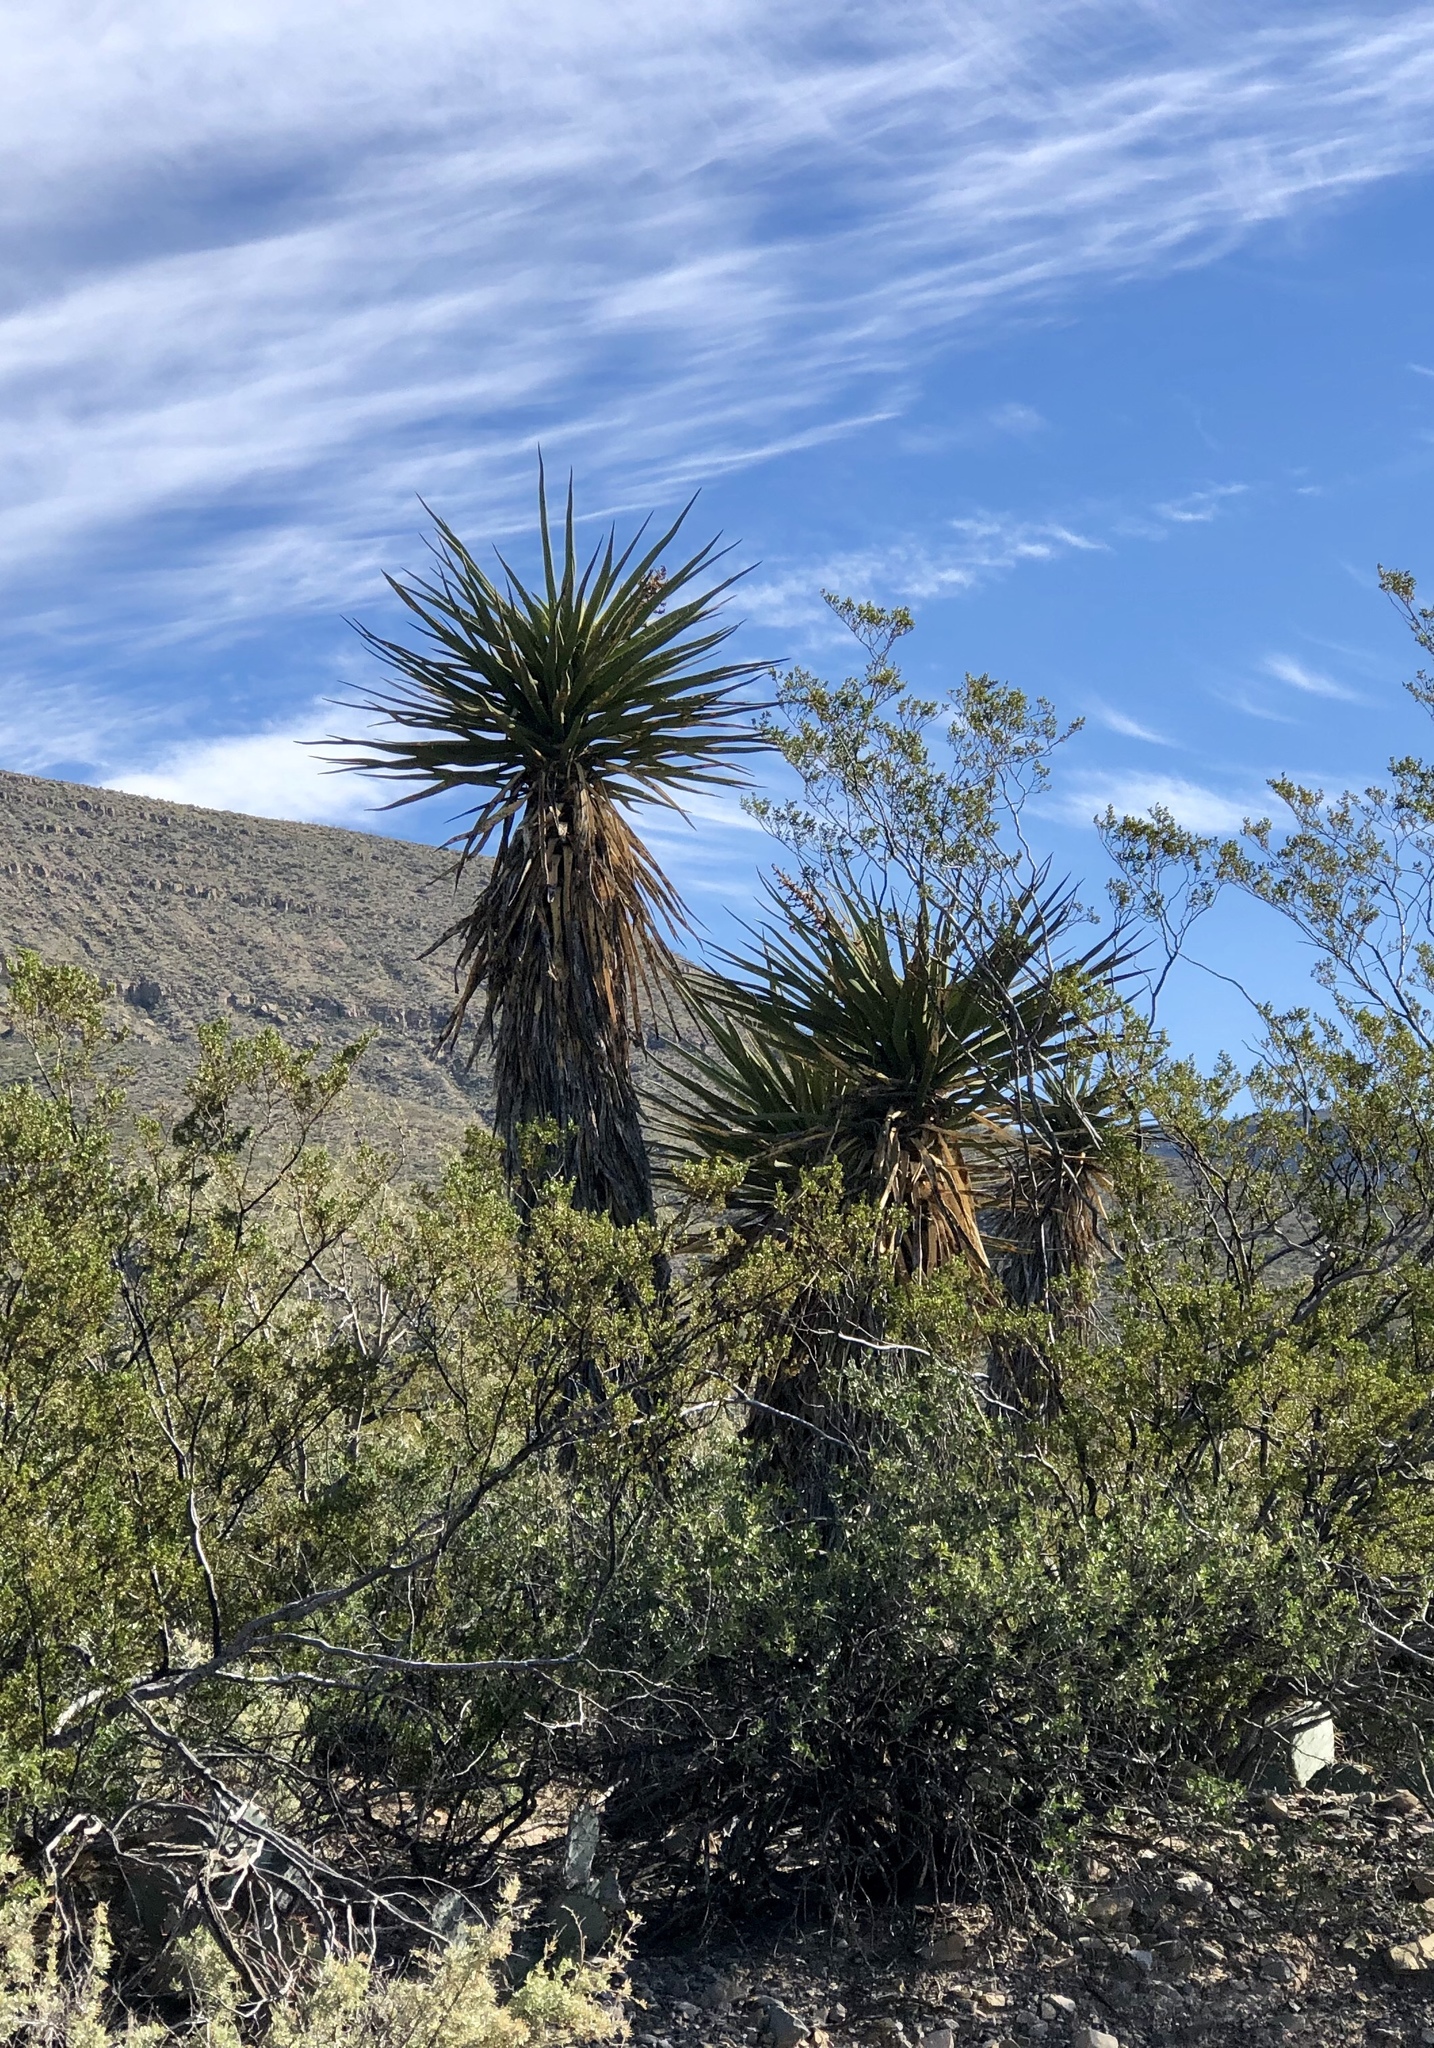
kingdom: Plantae
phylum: Tracheophyta
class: Liliopsida
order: Asparagales
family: Asparagaceae
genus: Yucca
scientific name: Yucca treculiana
